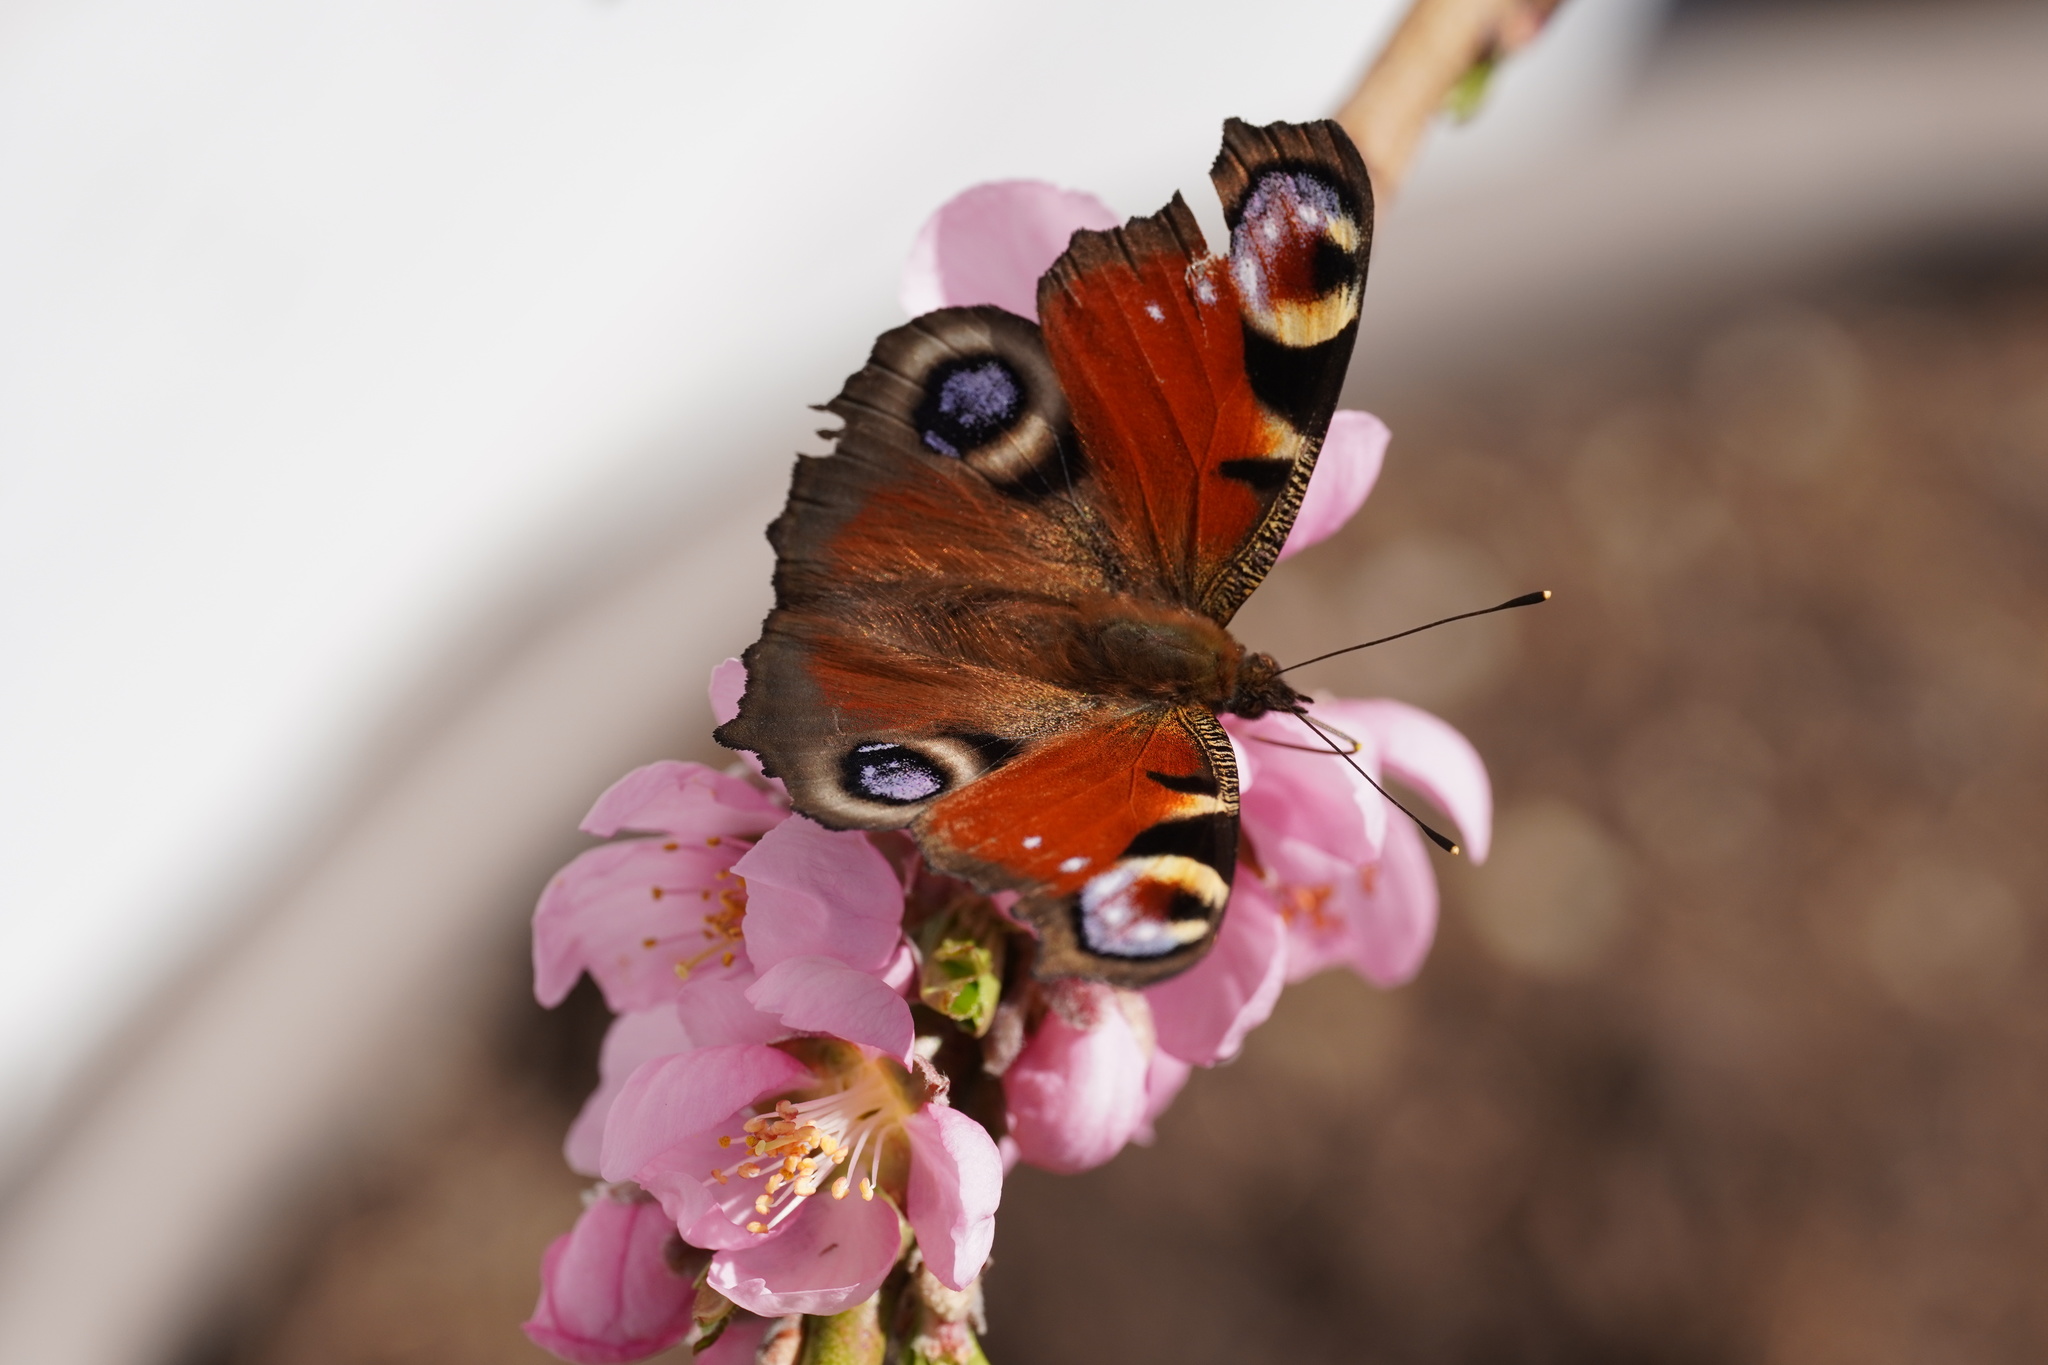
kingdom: Animalia
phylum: Arthropoda
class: Insecta
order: Lepidoptera
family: Nymphalidae
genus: Aglais
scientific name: Aglais io
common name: Peacock
